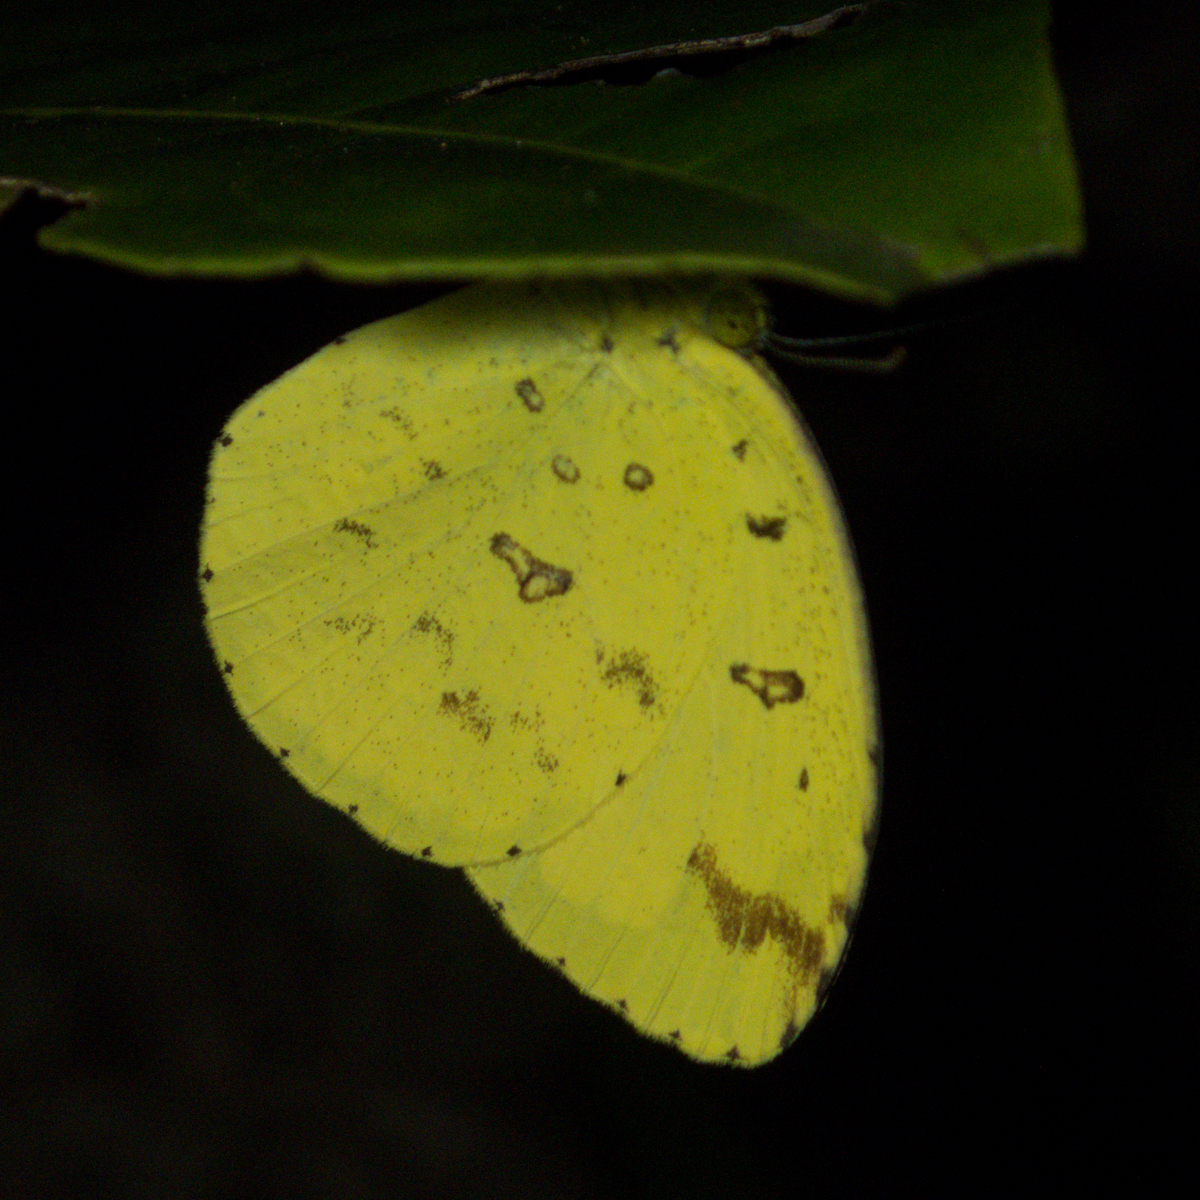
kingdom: Animalia
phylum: Arthropoda
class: Insecta
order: Lepidoptera
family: Pieridae
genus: Eurema
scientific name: Eurema hecabe
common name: Pale grass yellow
